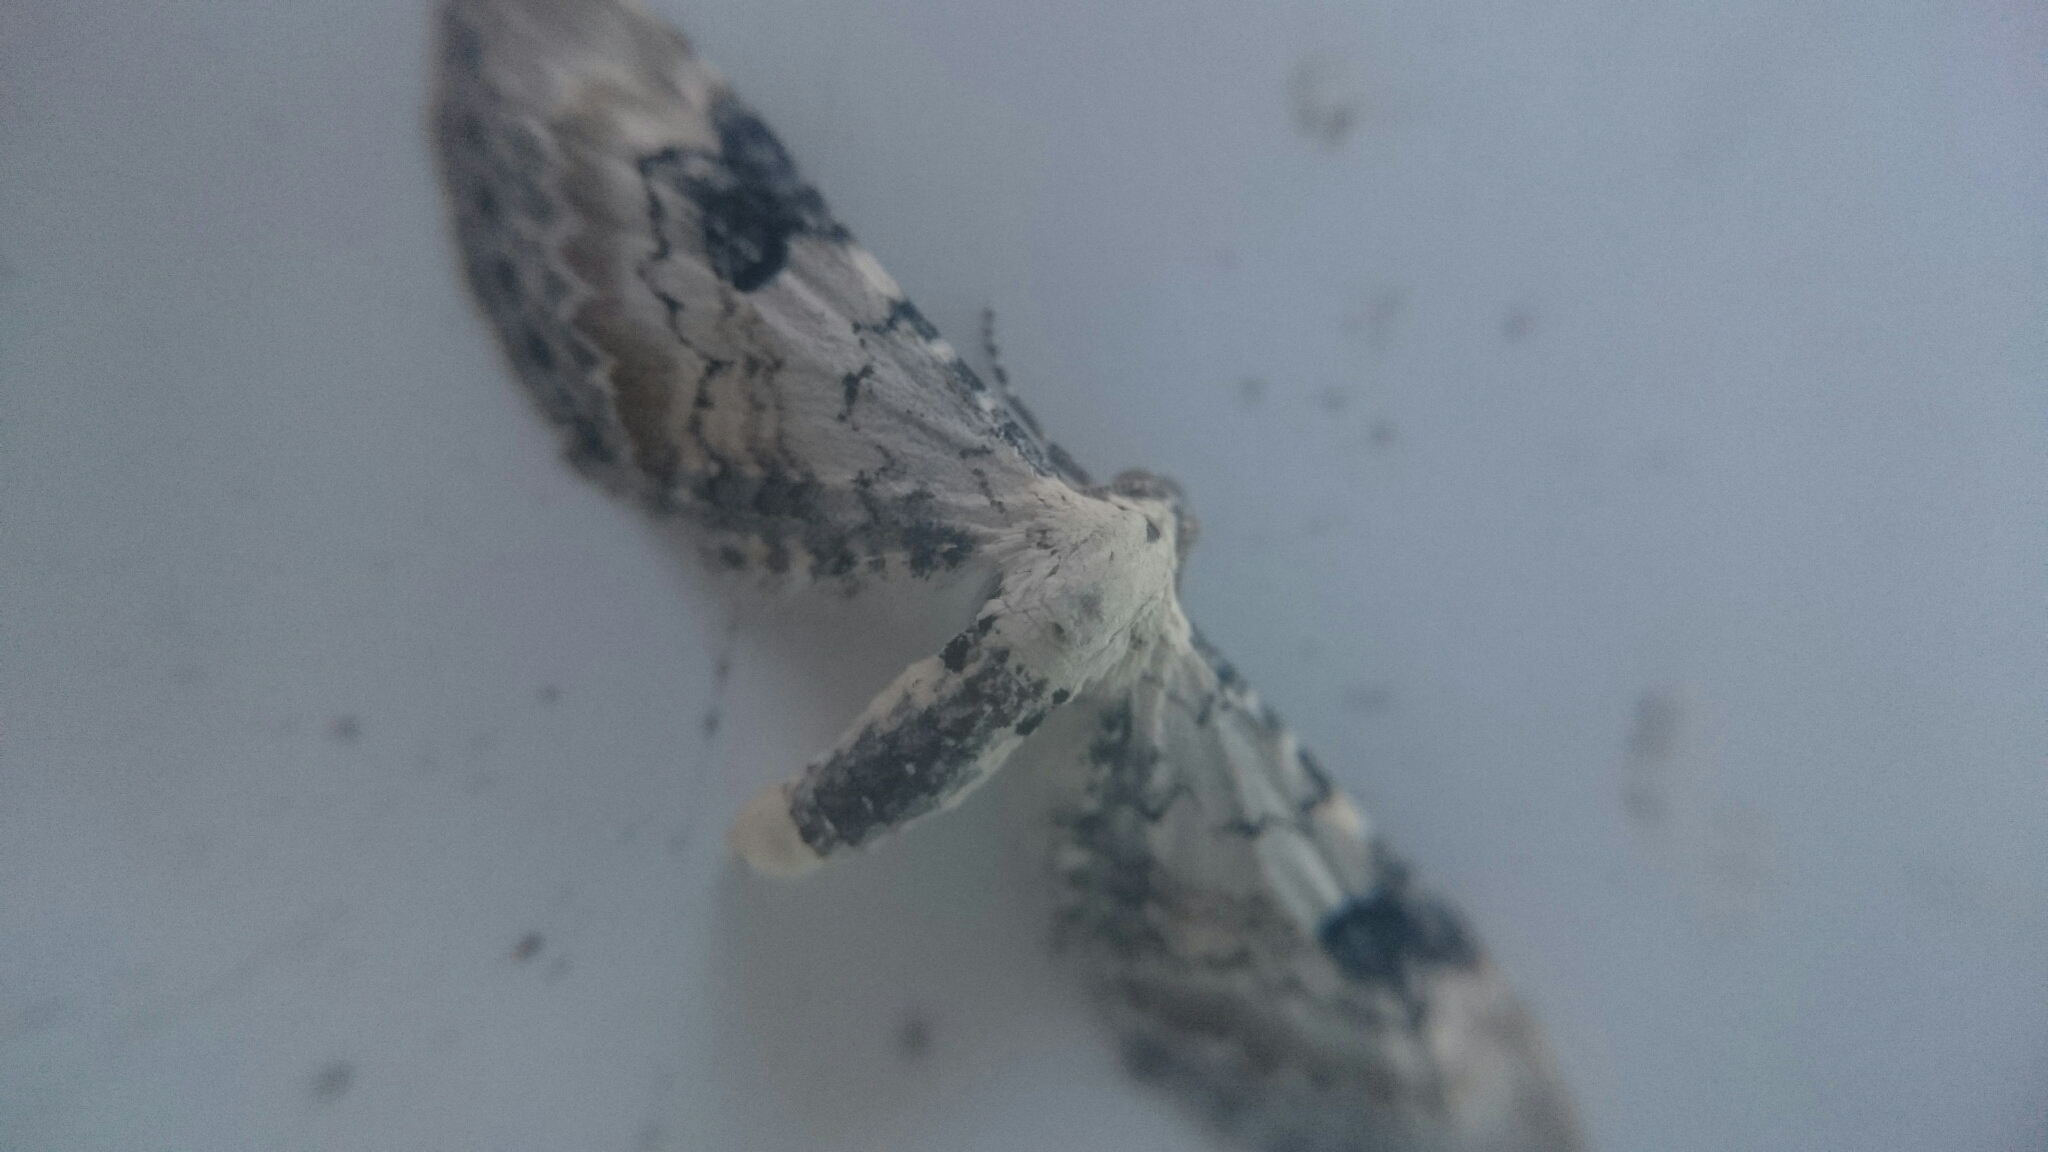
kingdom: Animalia
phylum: Arthropoda
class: Insecta
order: Lepidoptera
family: Geometridae
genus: Eupithecia
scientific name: Eupithecia centaureata
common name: Lime-speck pug
